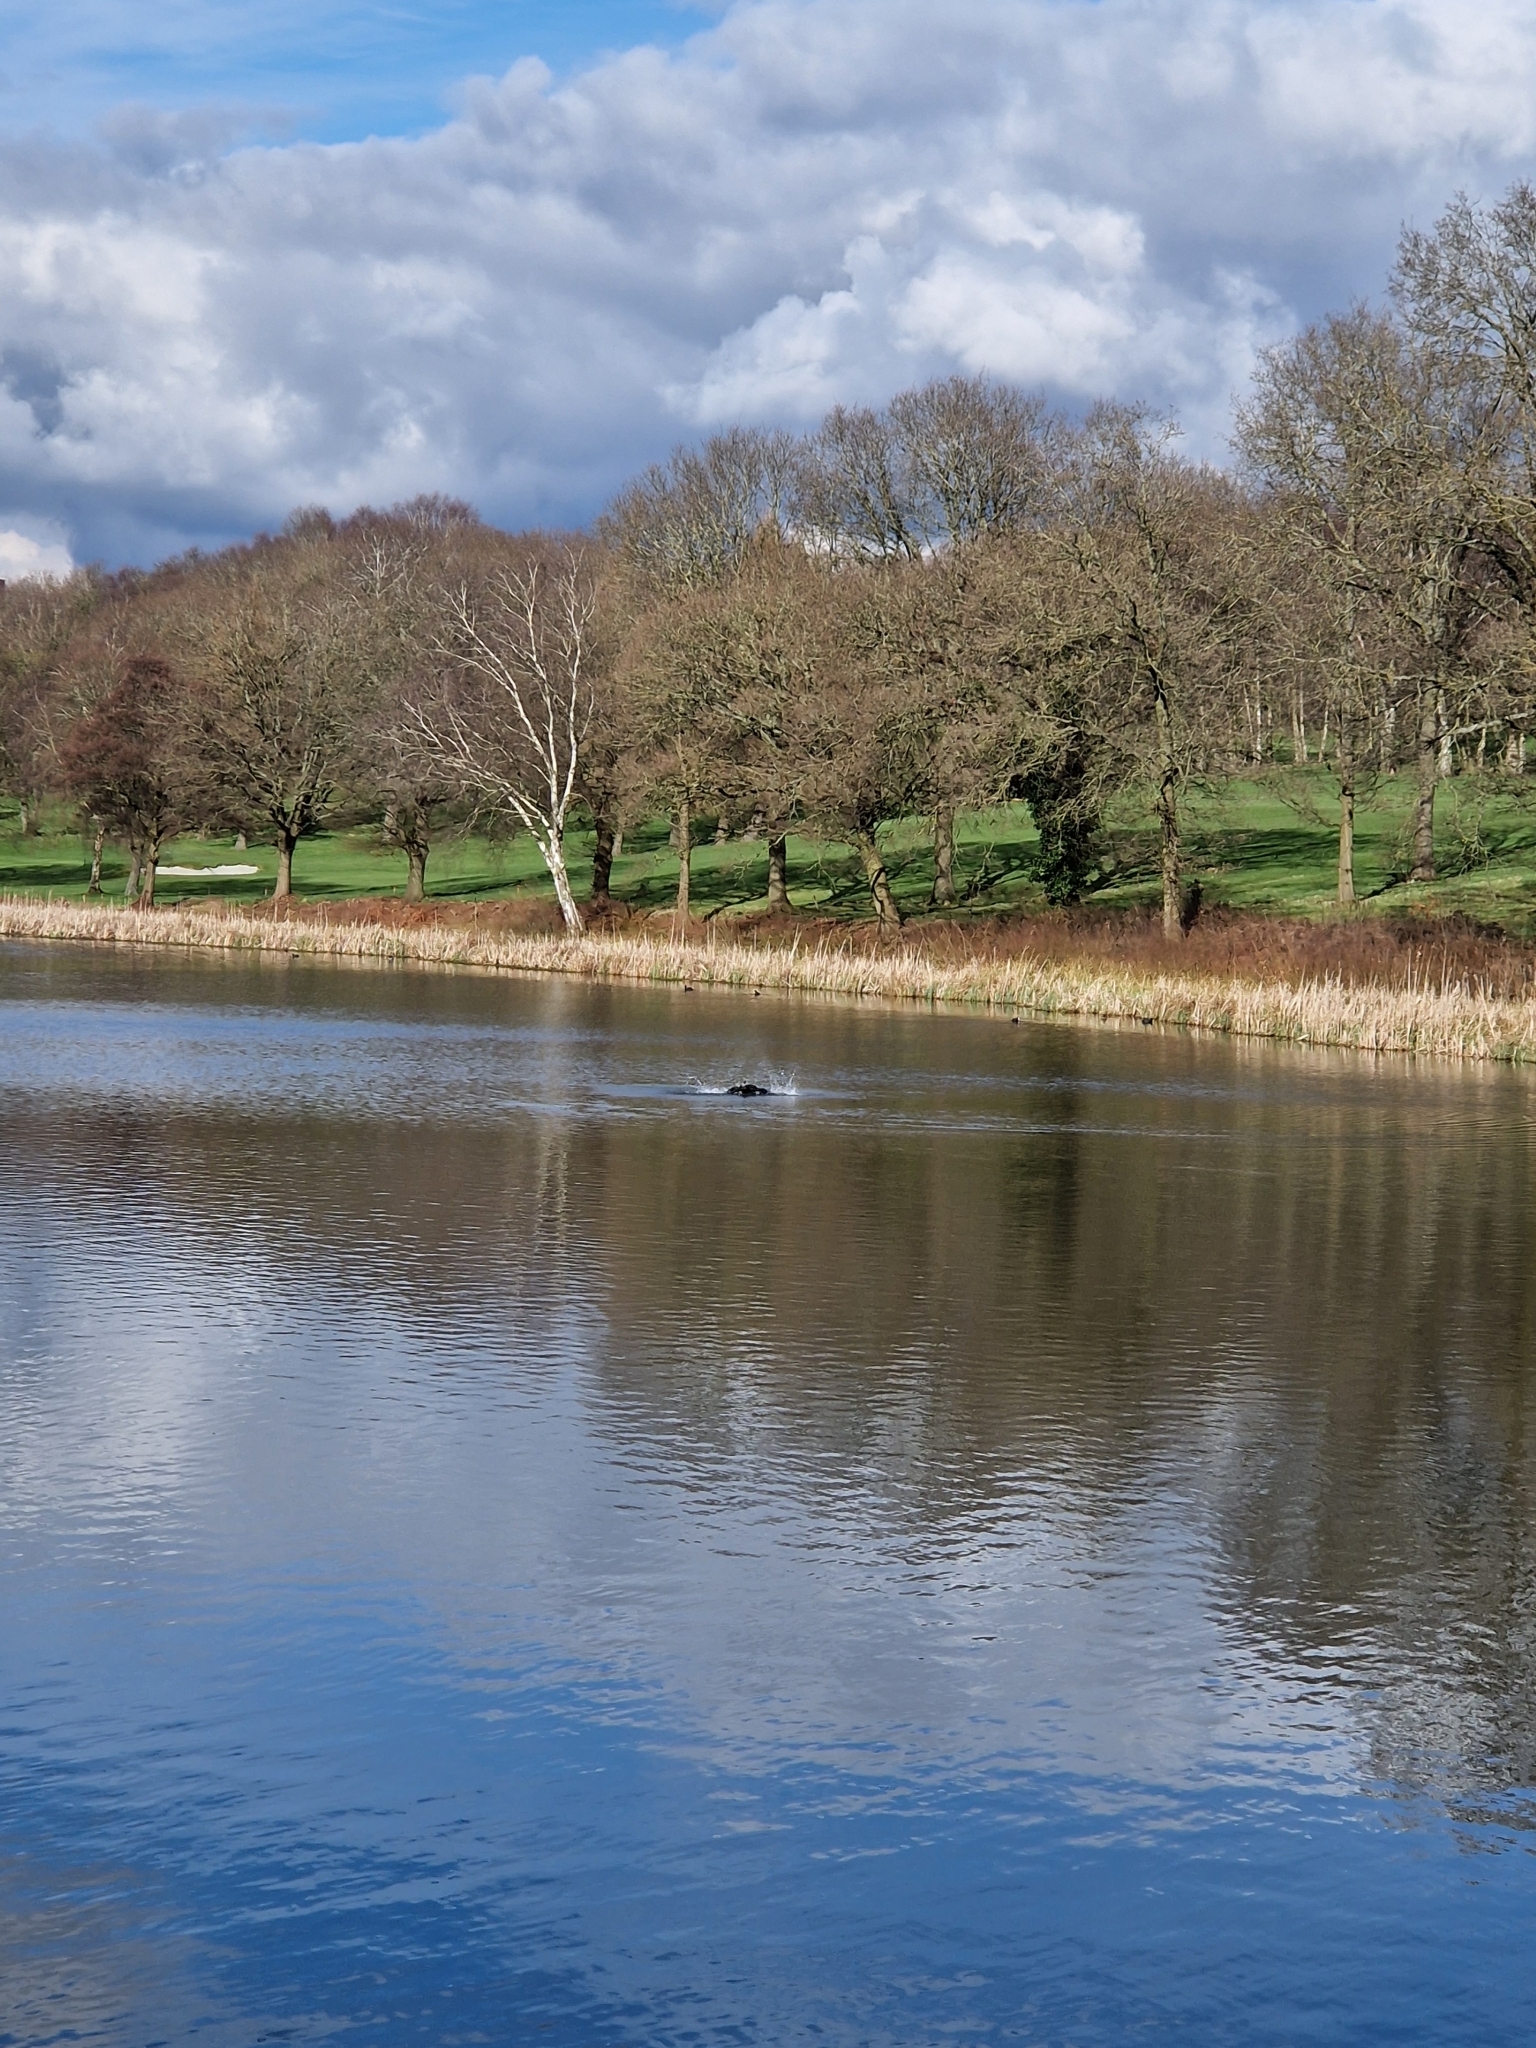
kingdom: Animalia
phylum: Chordata
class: Aves
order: Suliformes
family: Phalacrocoracidae
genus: Phalacrocorax
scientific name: Phalacrocorax carbo
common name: Great cormorant
